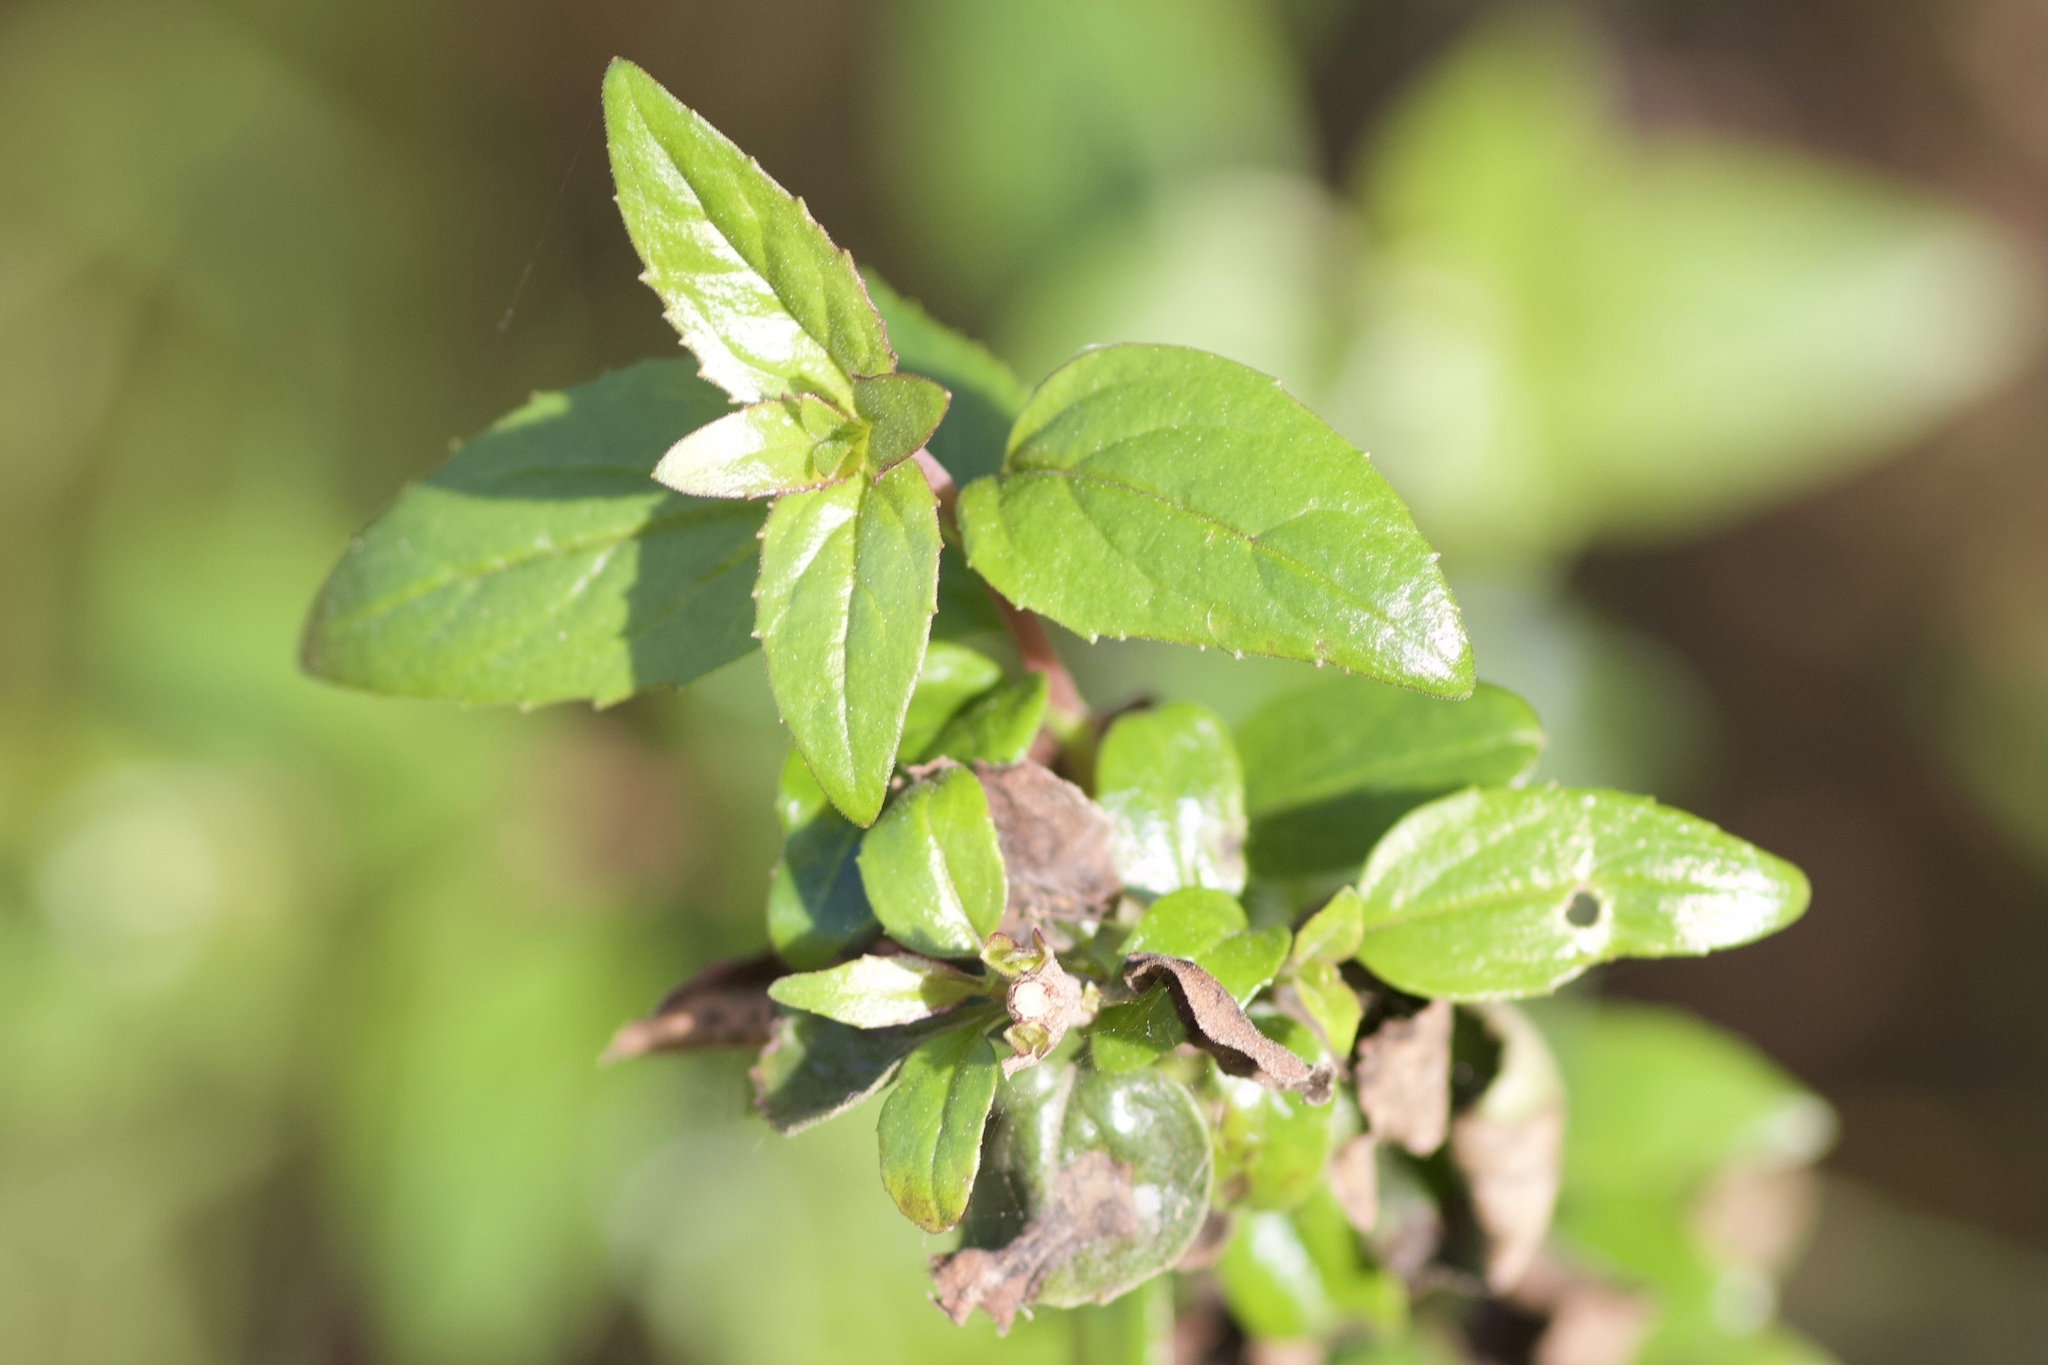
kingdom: Plantae
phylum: Tracheophyta
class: Magnoliopsida
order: Lamiales
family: Plantaginaceae
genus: Keckiella
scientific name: Keckiella cordifolia
